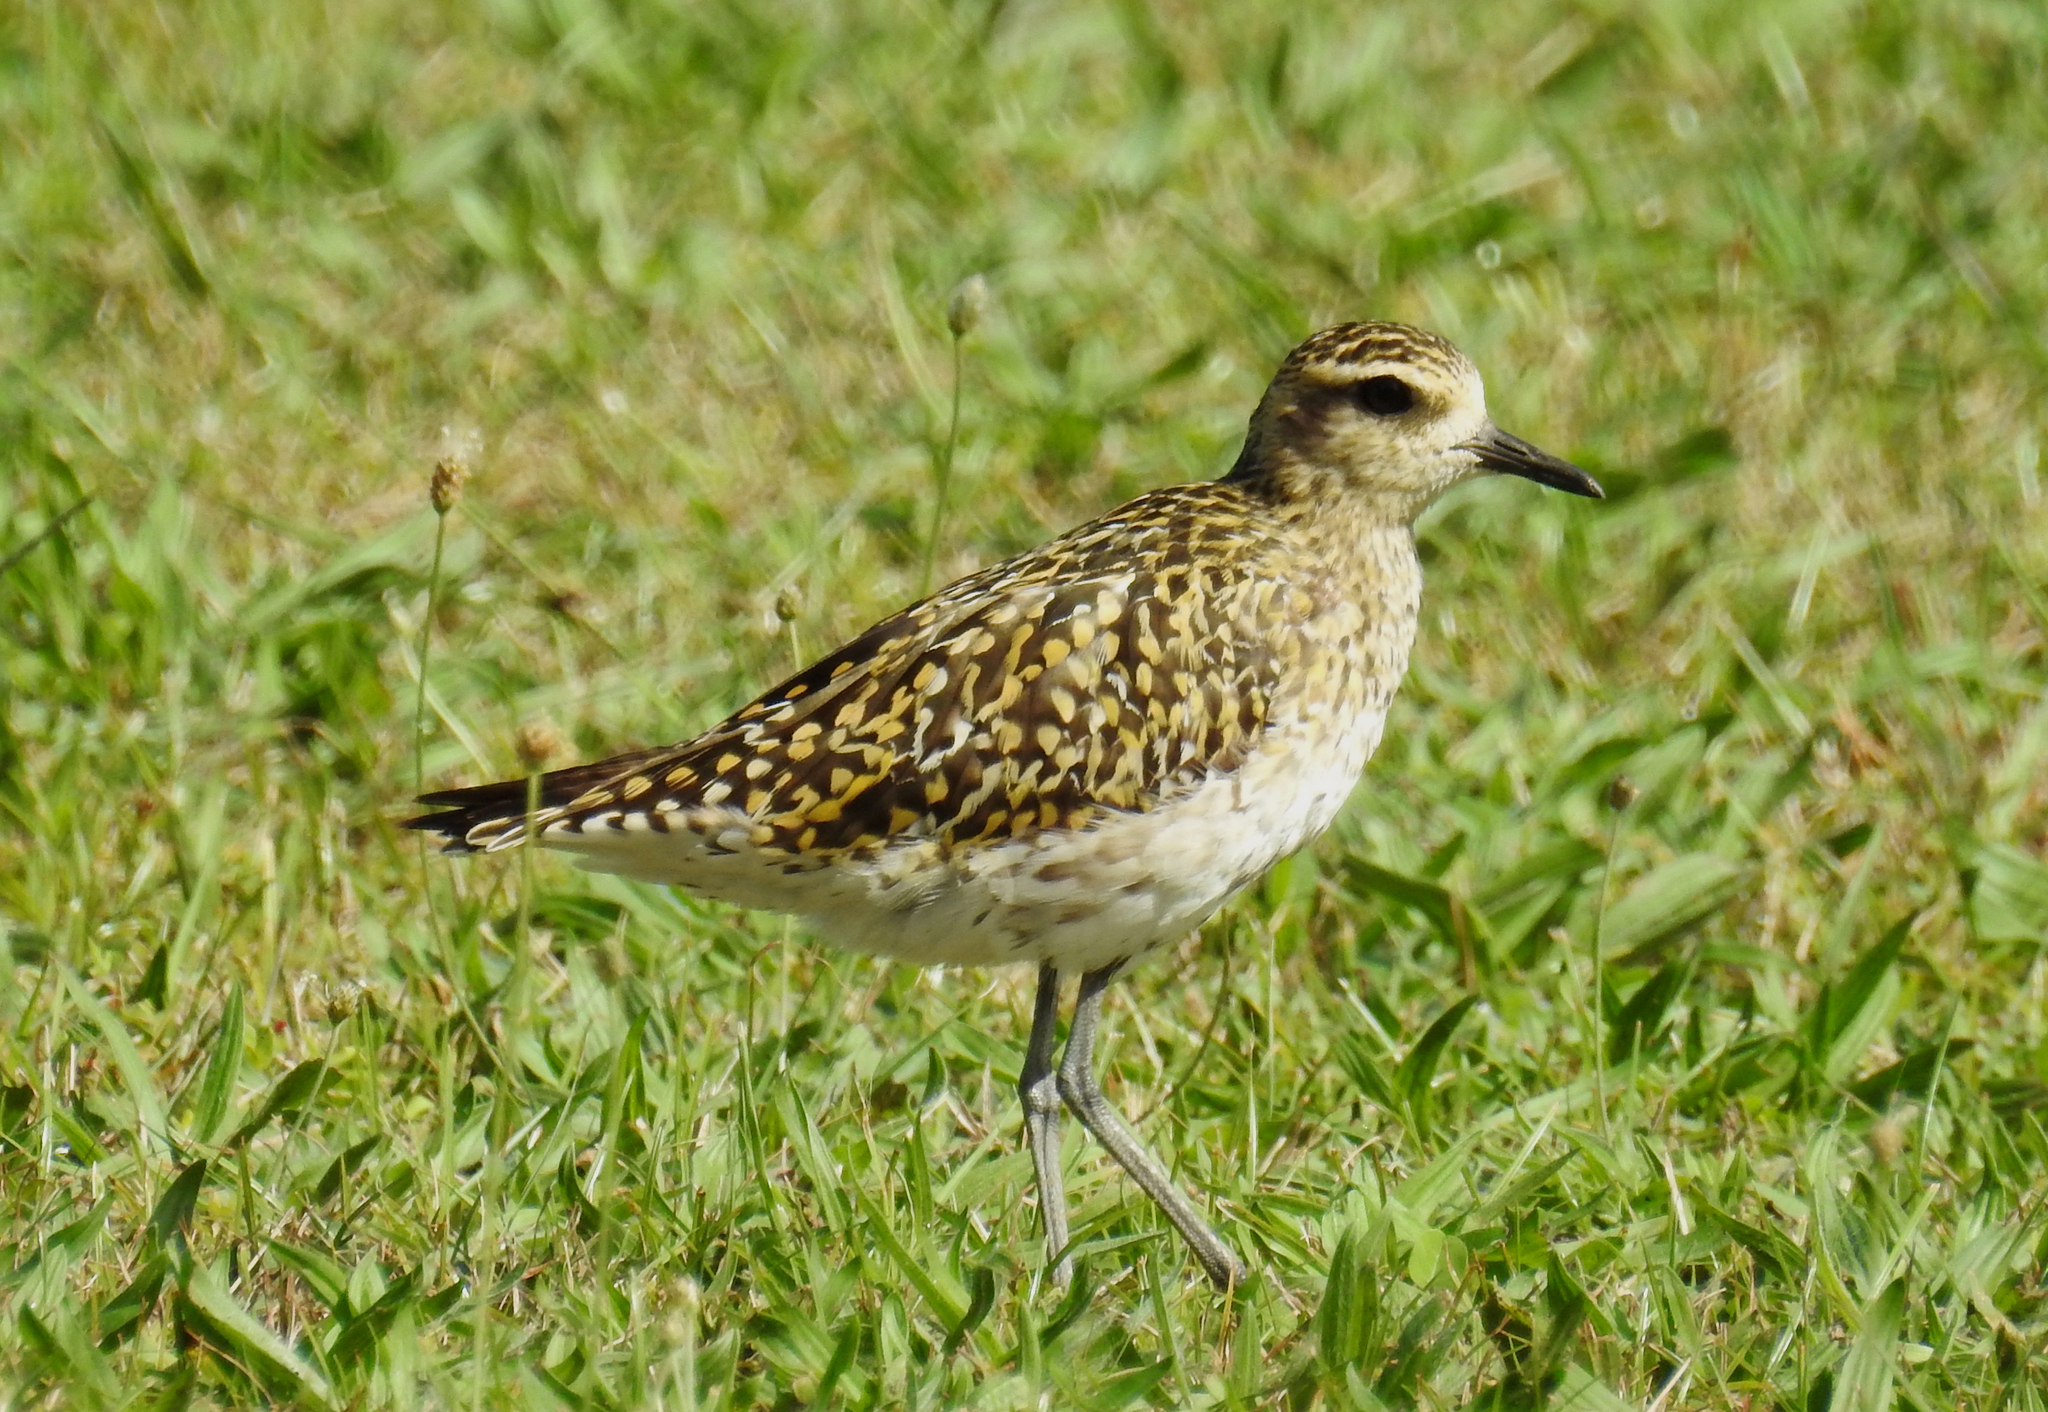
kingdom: Animalia
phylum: Chordata
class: Aves
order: Charadriiformes
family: Charadriidae
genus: Pluvialis
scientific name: Pluvialis fulva
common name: Pacific golden plover
